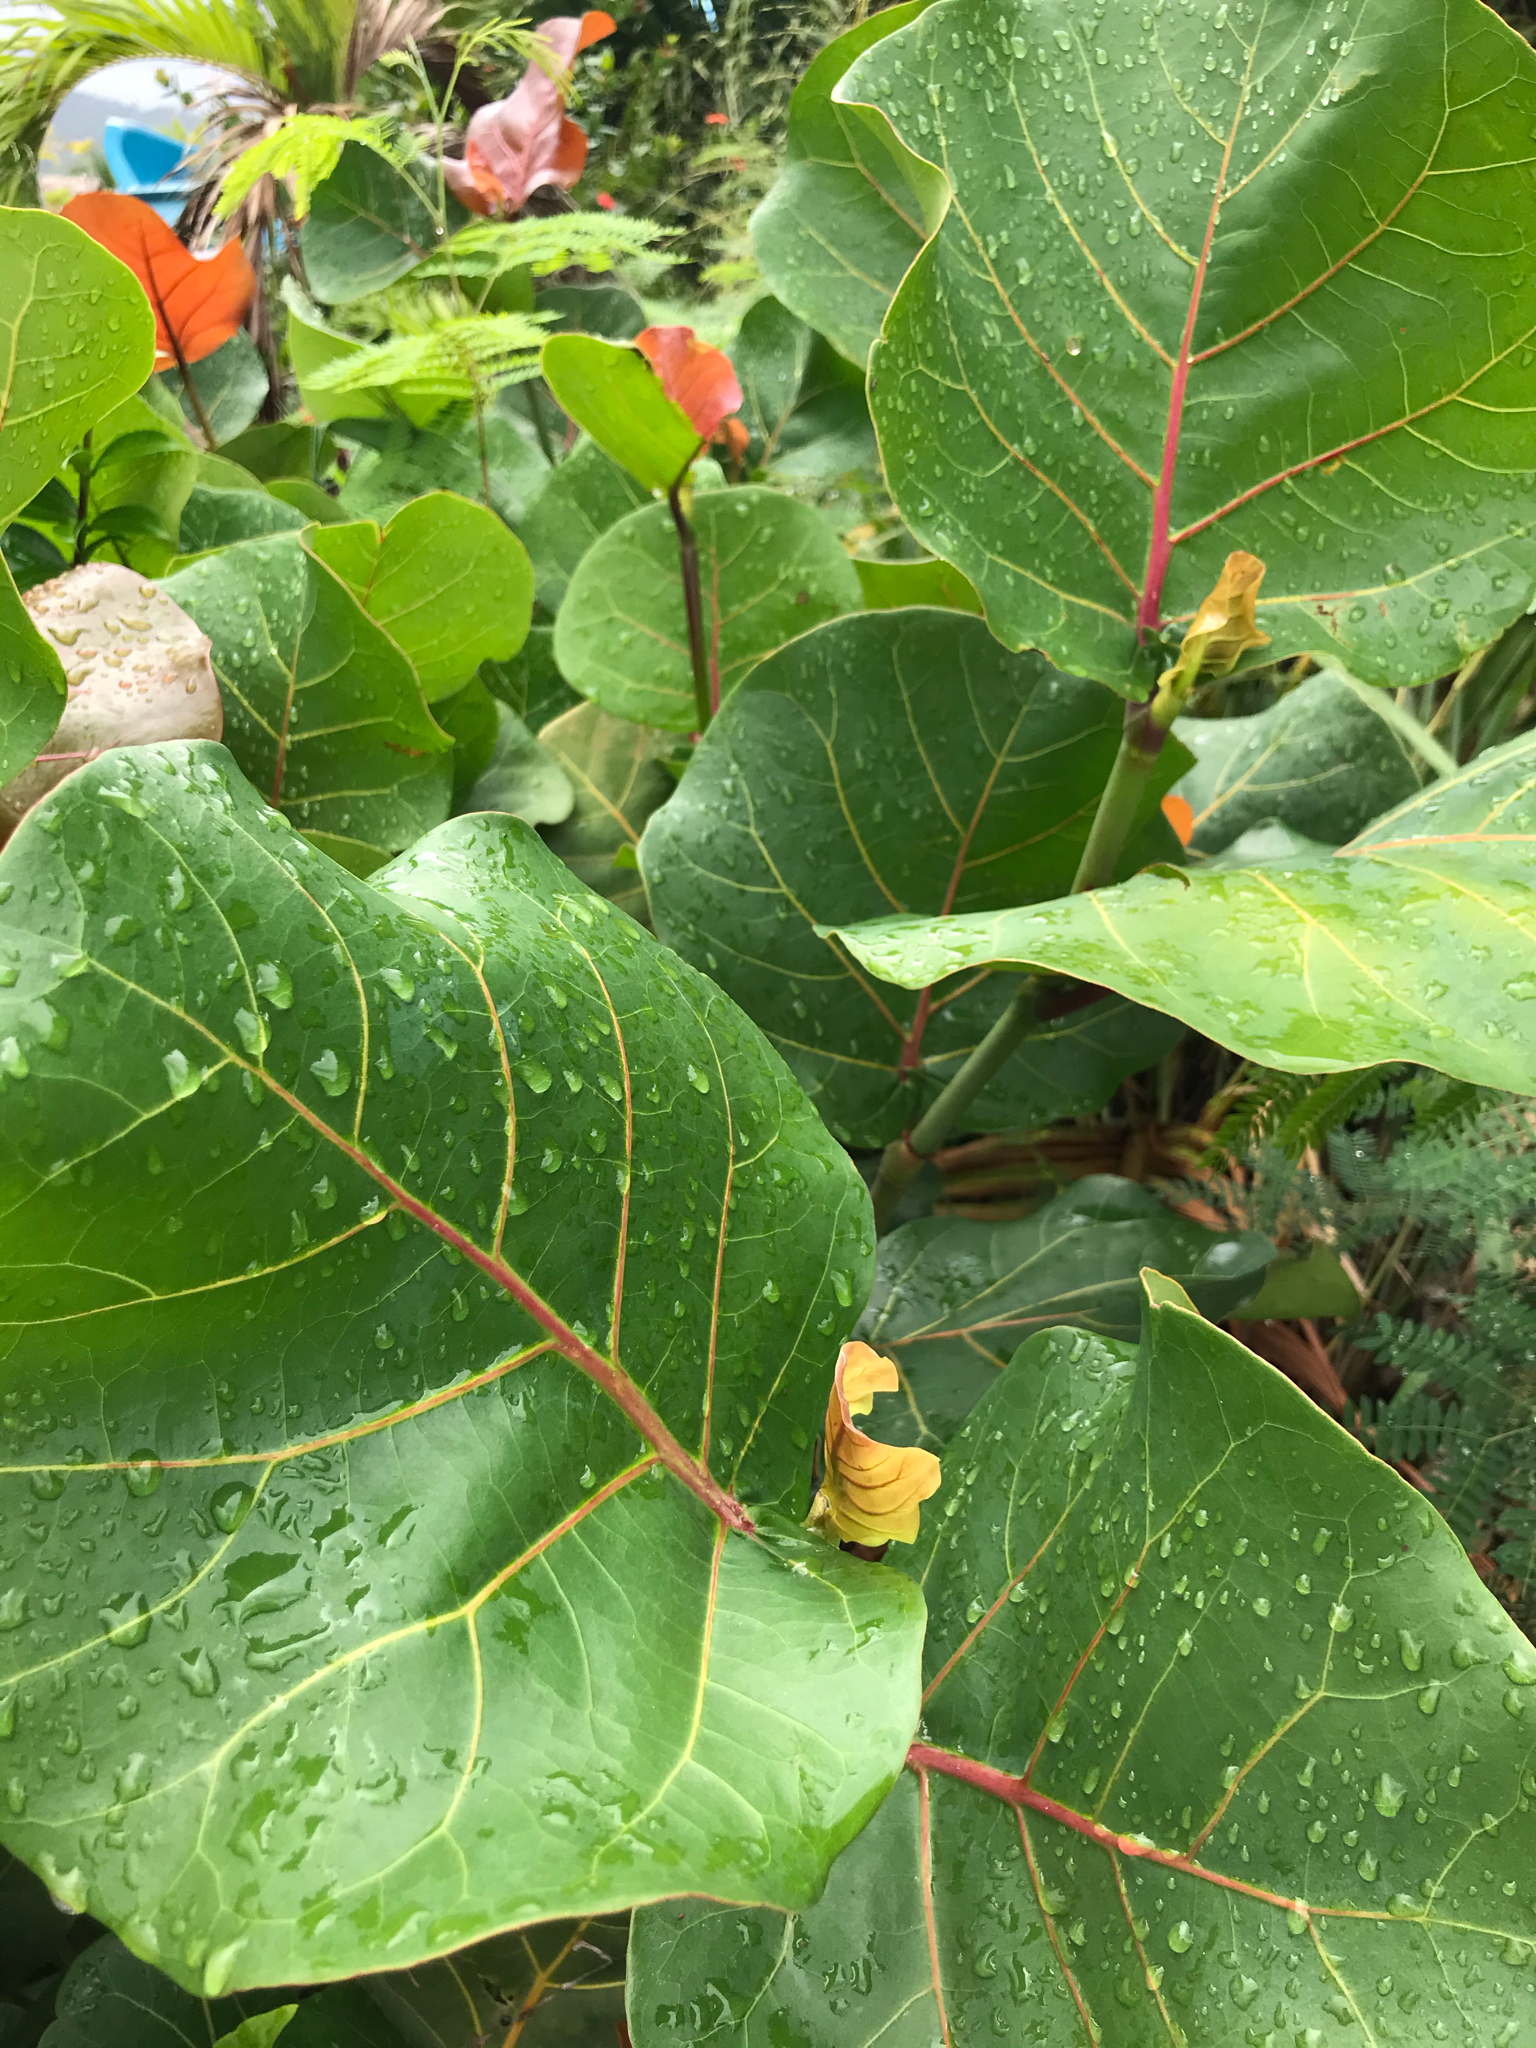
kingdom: Plantae
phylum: Tracheophyta
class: Magnoliopsida
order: Caryophyllales
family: Polygonaceae
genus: Coccoloba
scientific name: Coccoloba uvifera
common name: Seagrape
